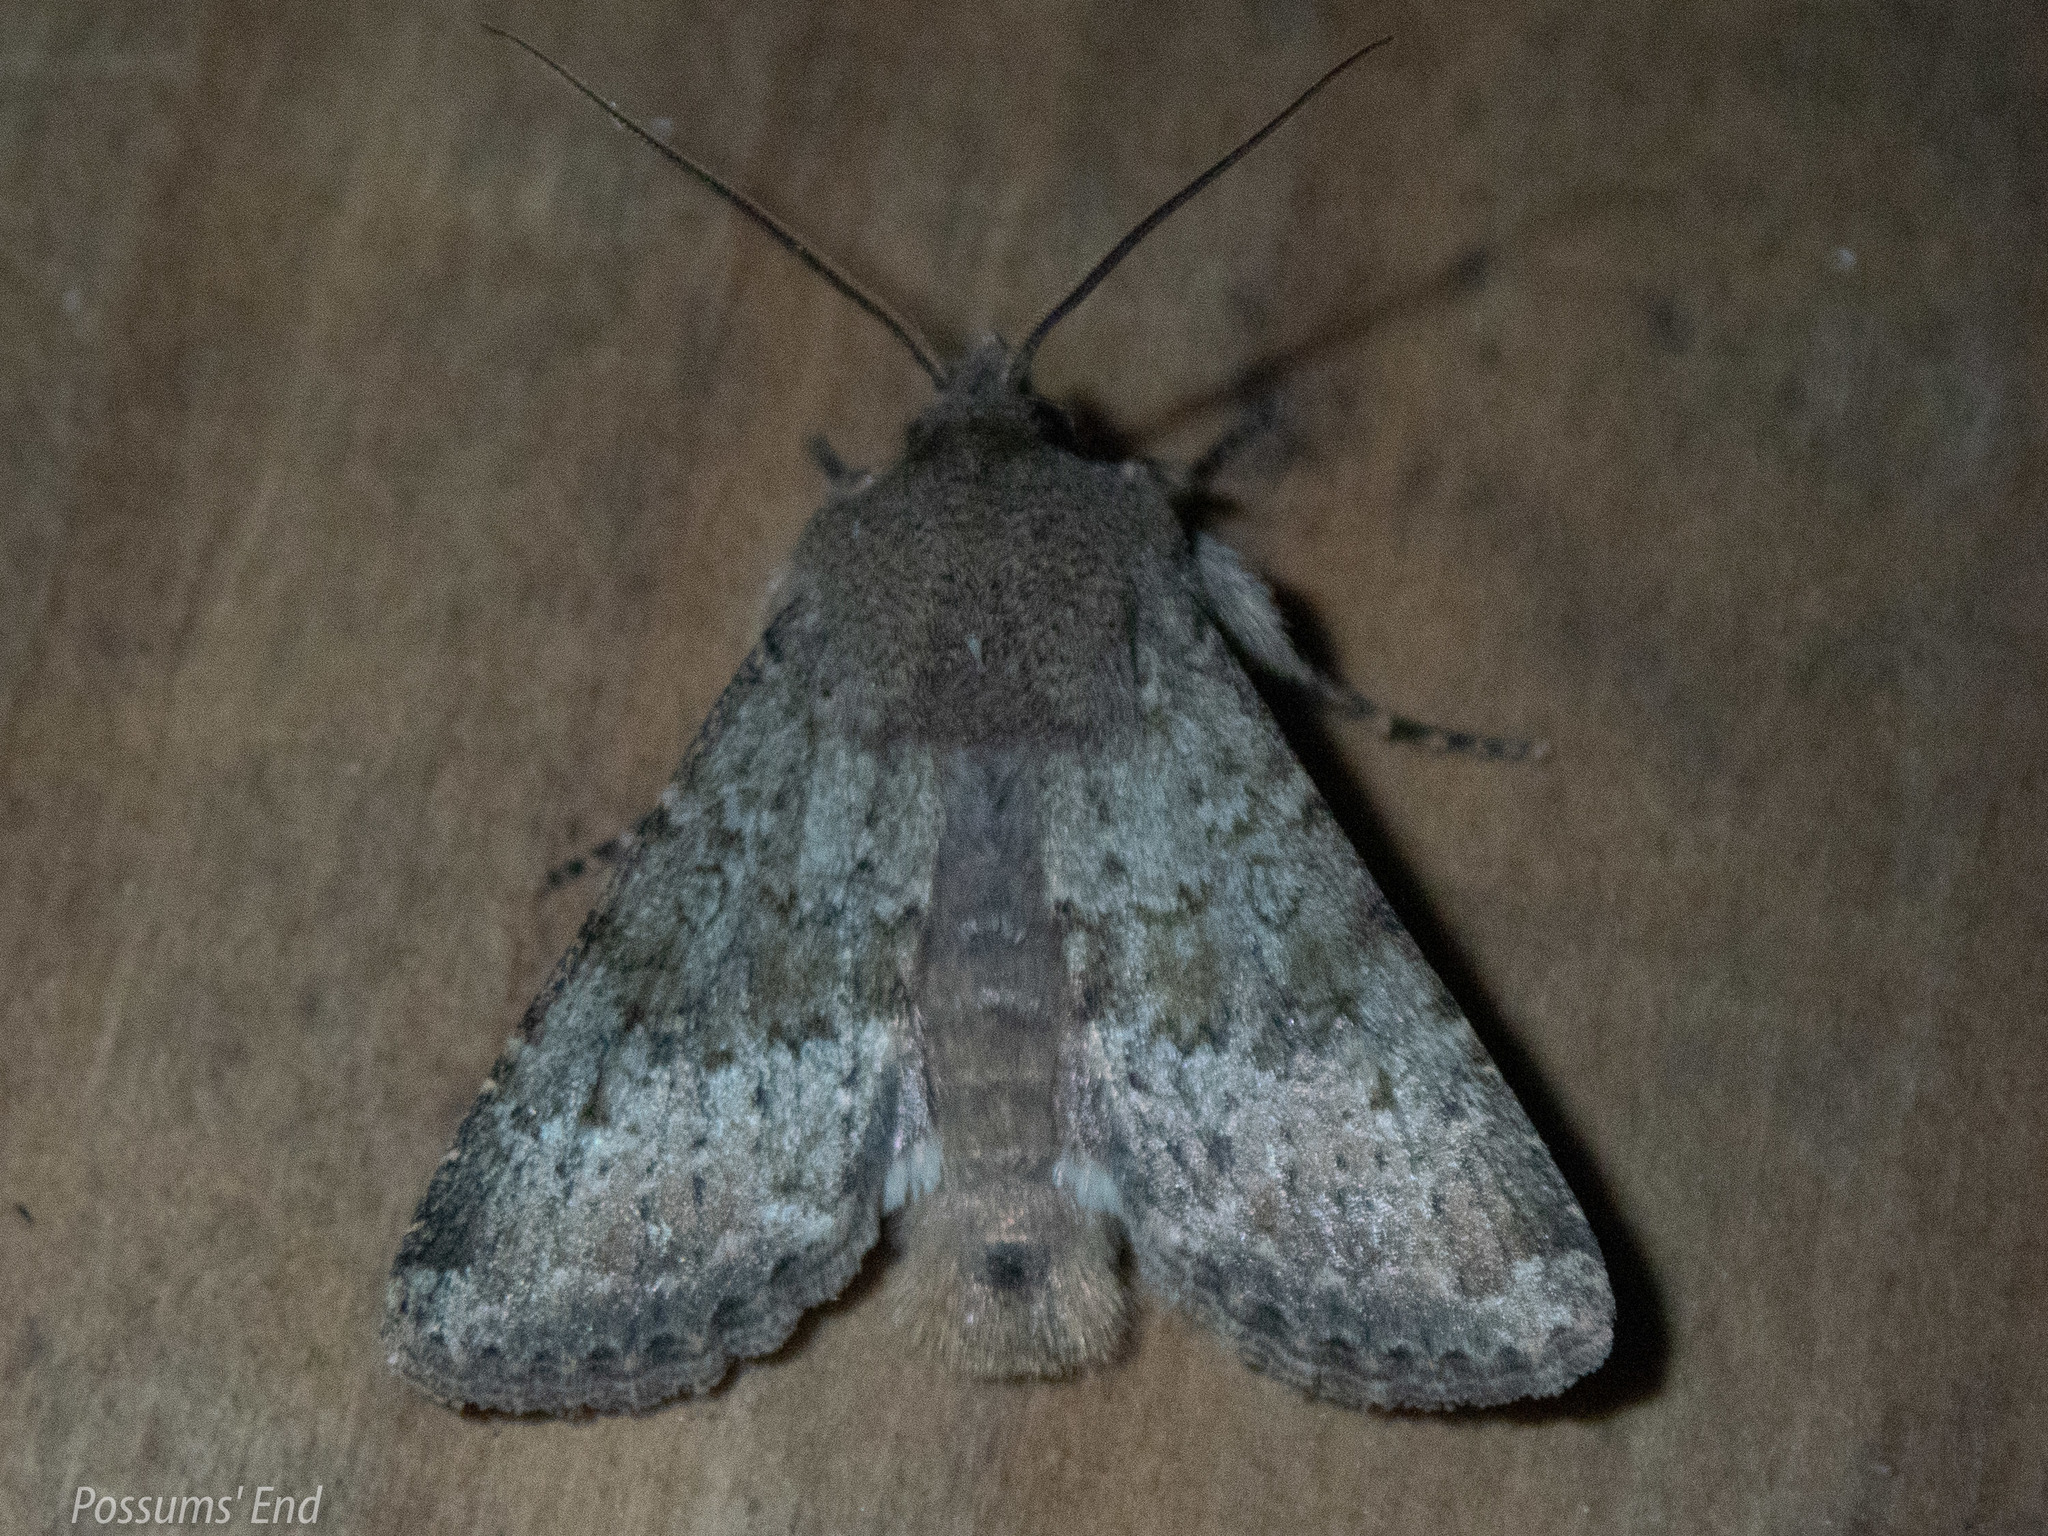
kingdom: Animalia
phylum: Arthropoda
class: Insecta
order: Lepidoptera
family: Noctuidae
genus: Ichneutica
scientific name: Ichneutica moderata
